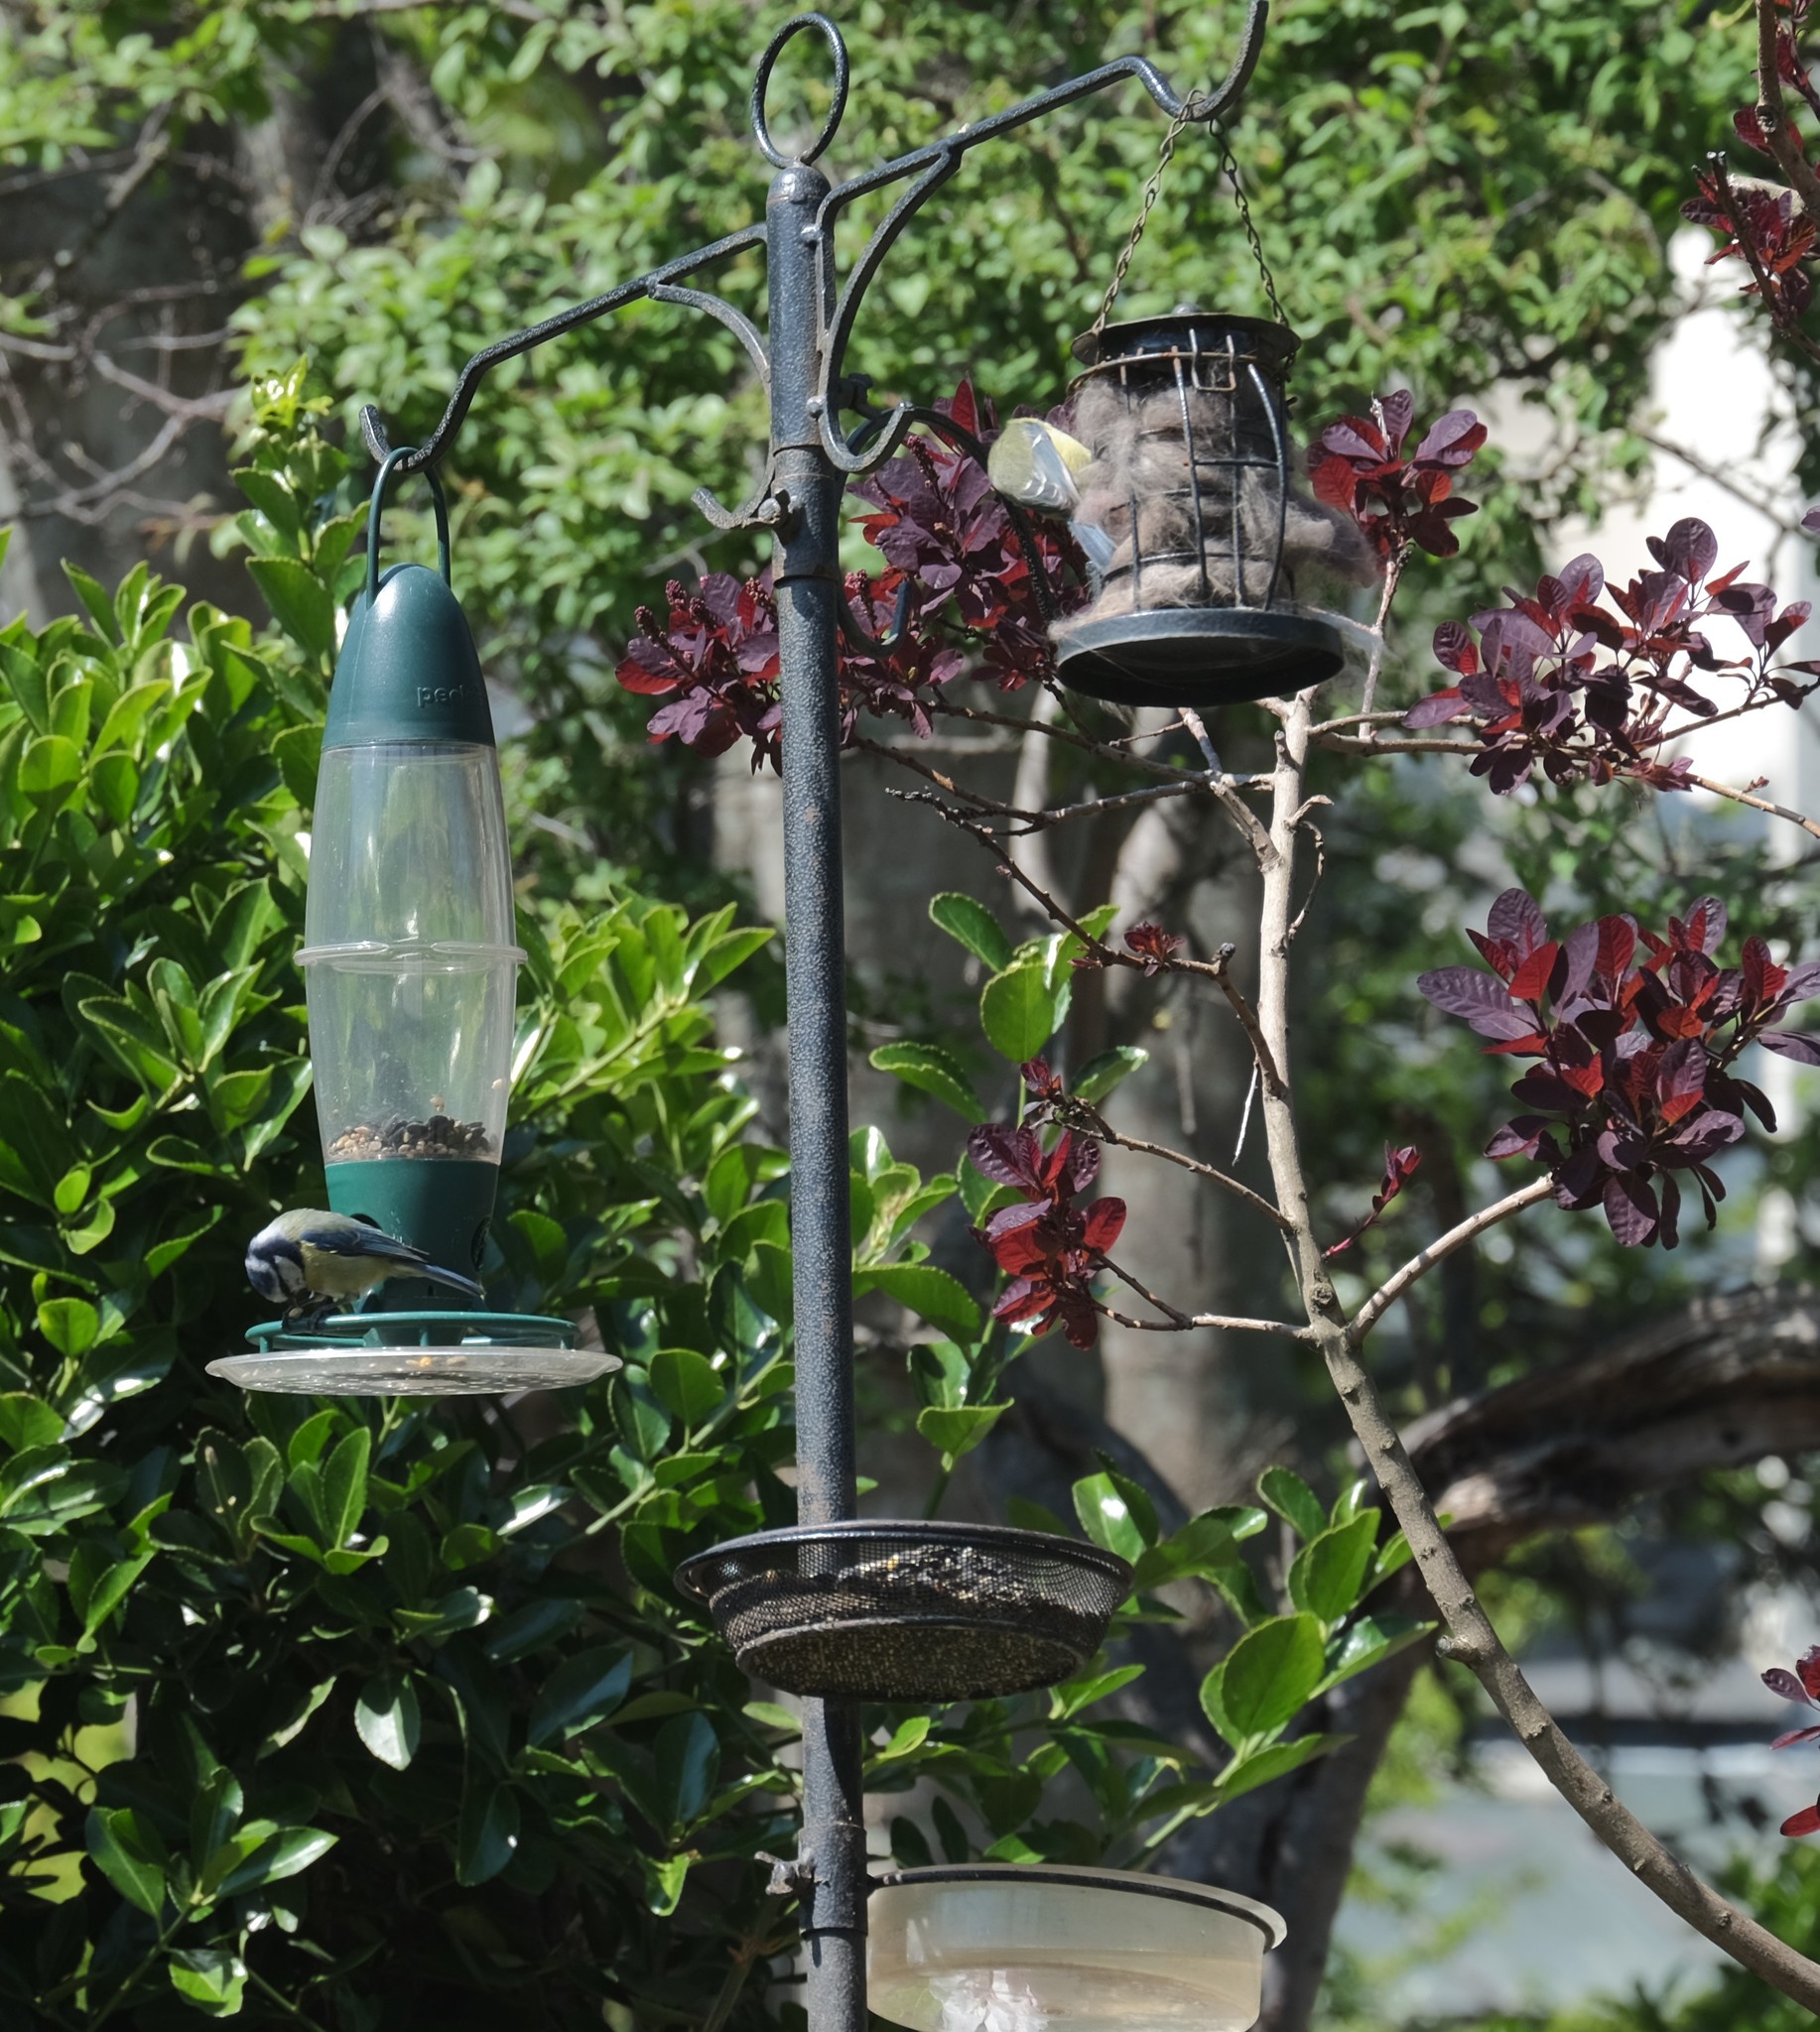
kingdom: Animalia
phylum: Chordata
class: Aves
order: Passeriformes
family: Paridae
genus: Cyanistes
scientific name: Cyanistes caeruleus
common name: Eurasian blue tit
